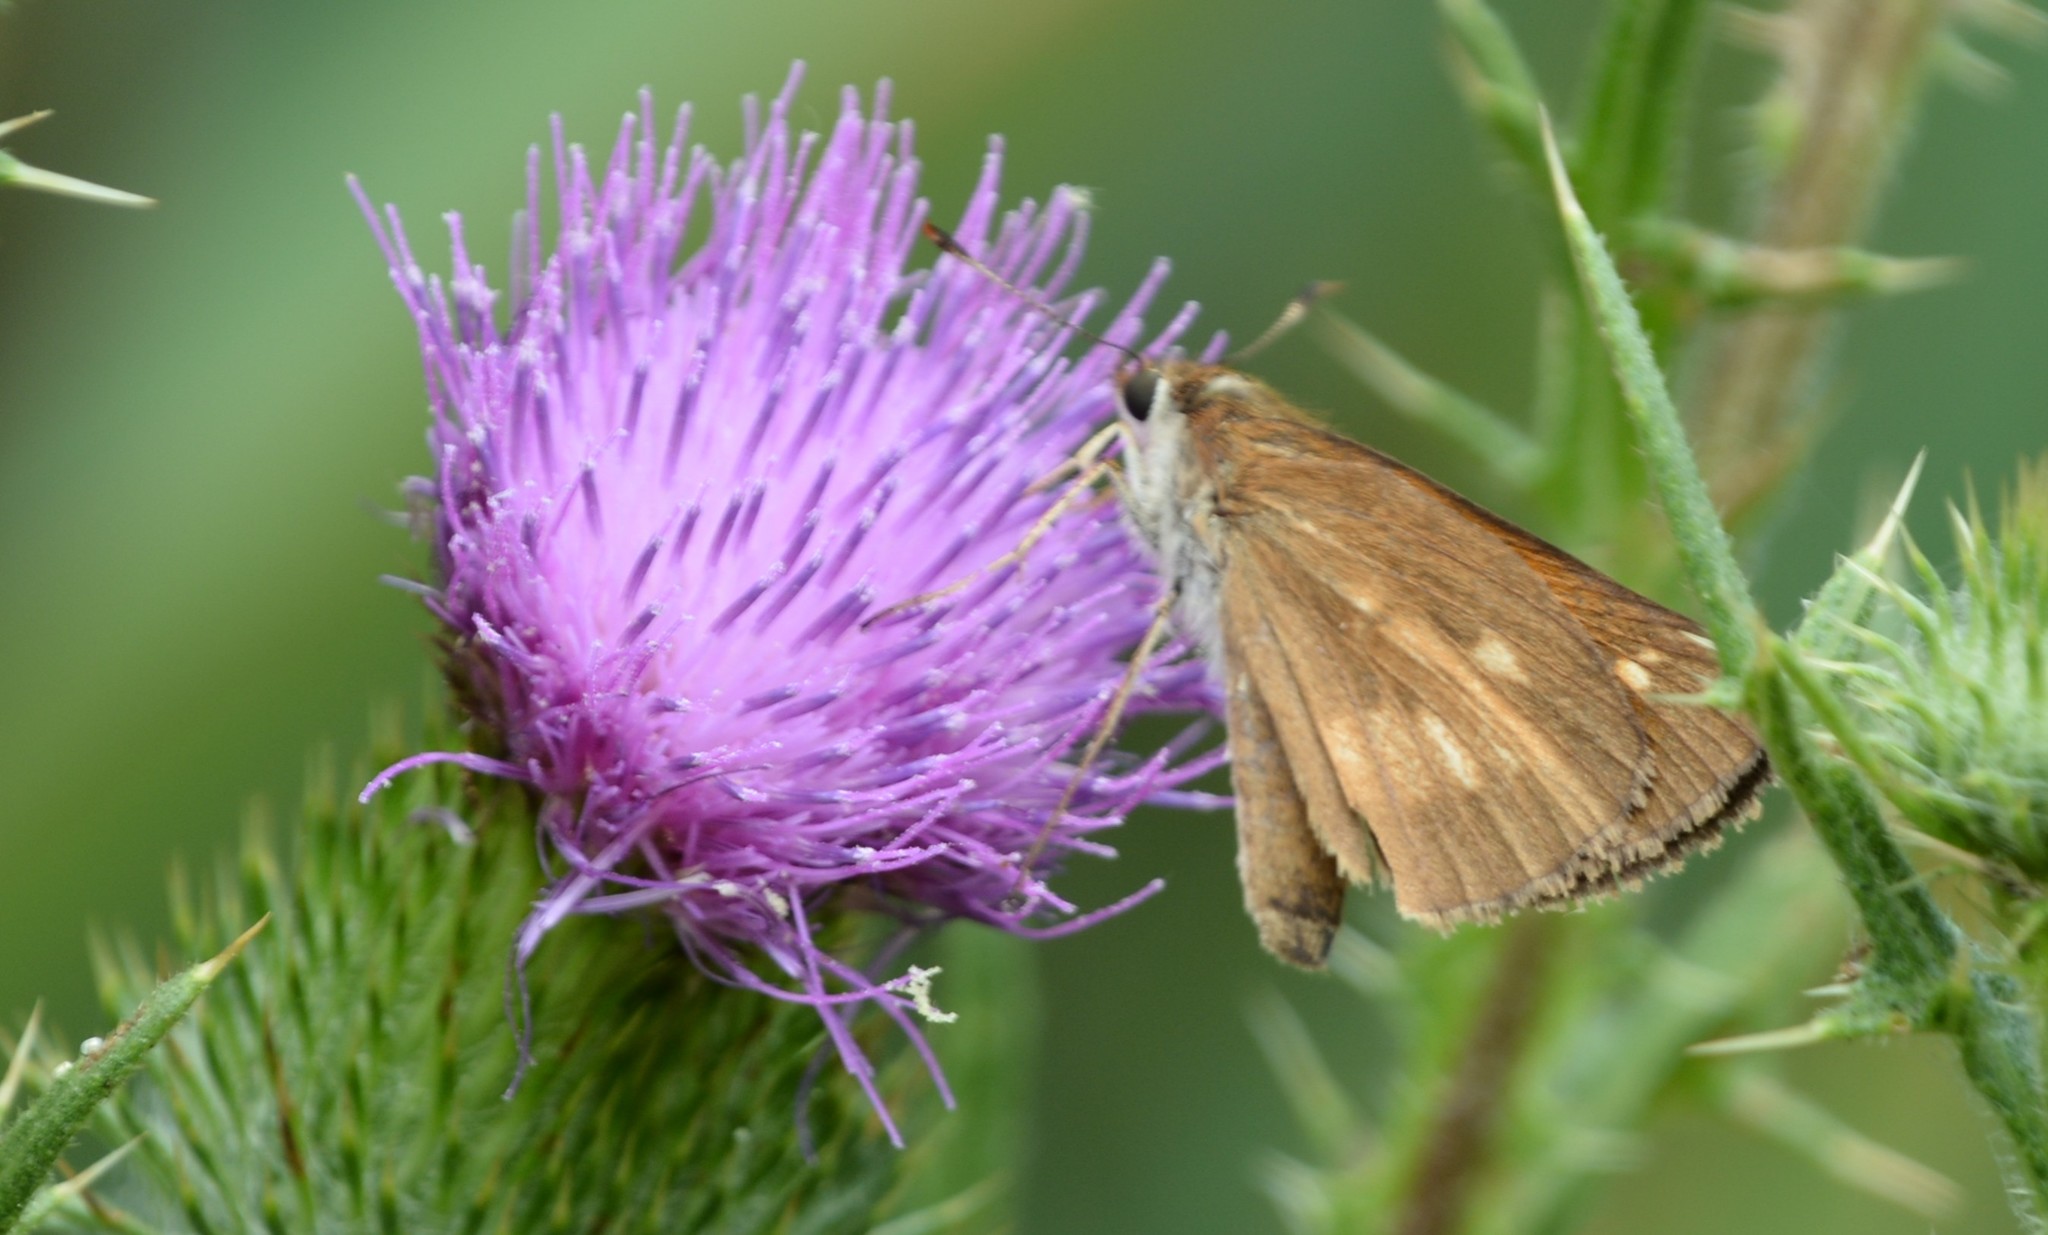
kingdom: Animalia
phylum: Arthropoda
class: Insecta
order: Lepidoptera
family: Hesperiidae
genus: Poanes
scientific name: Poanes viator
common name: Broad-winged skipper
